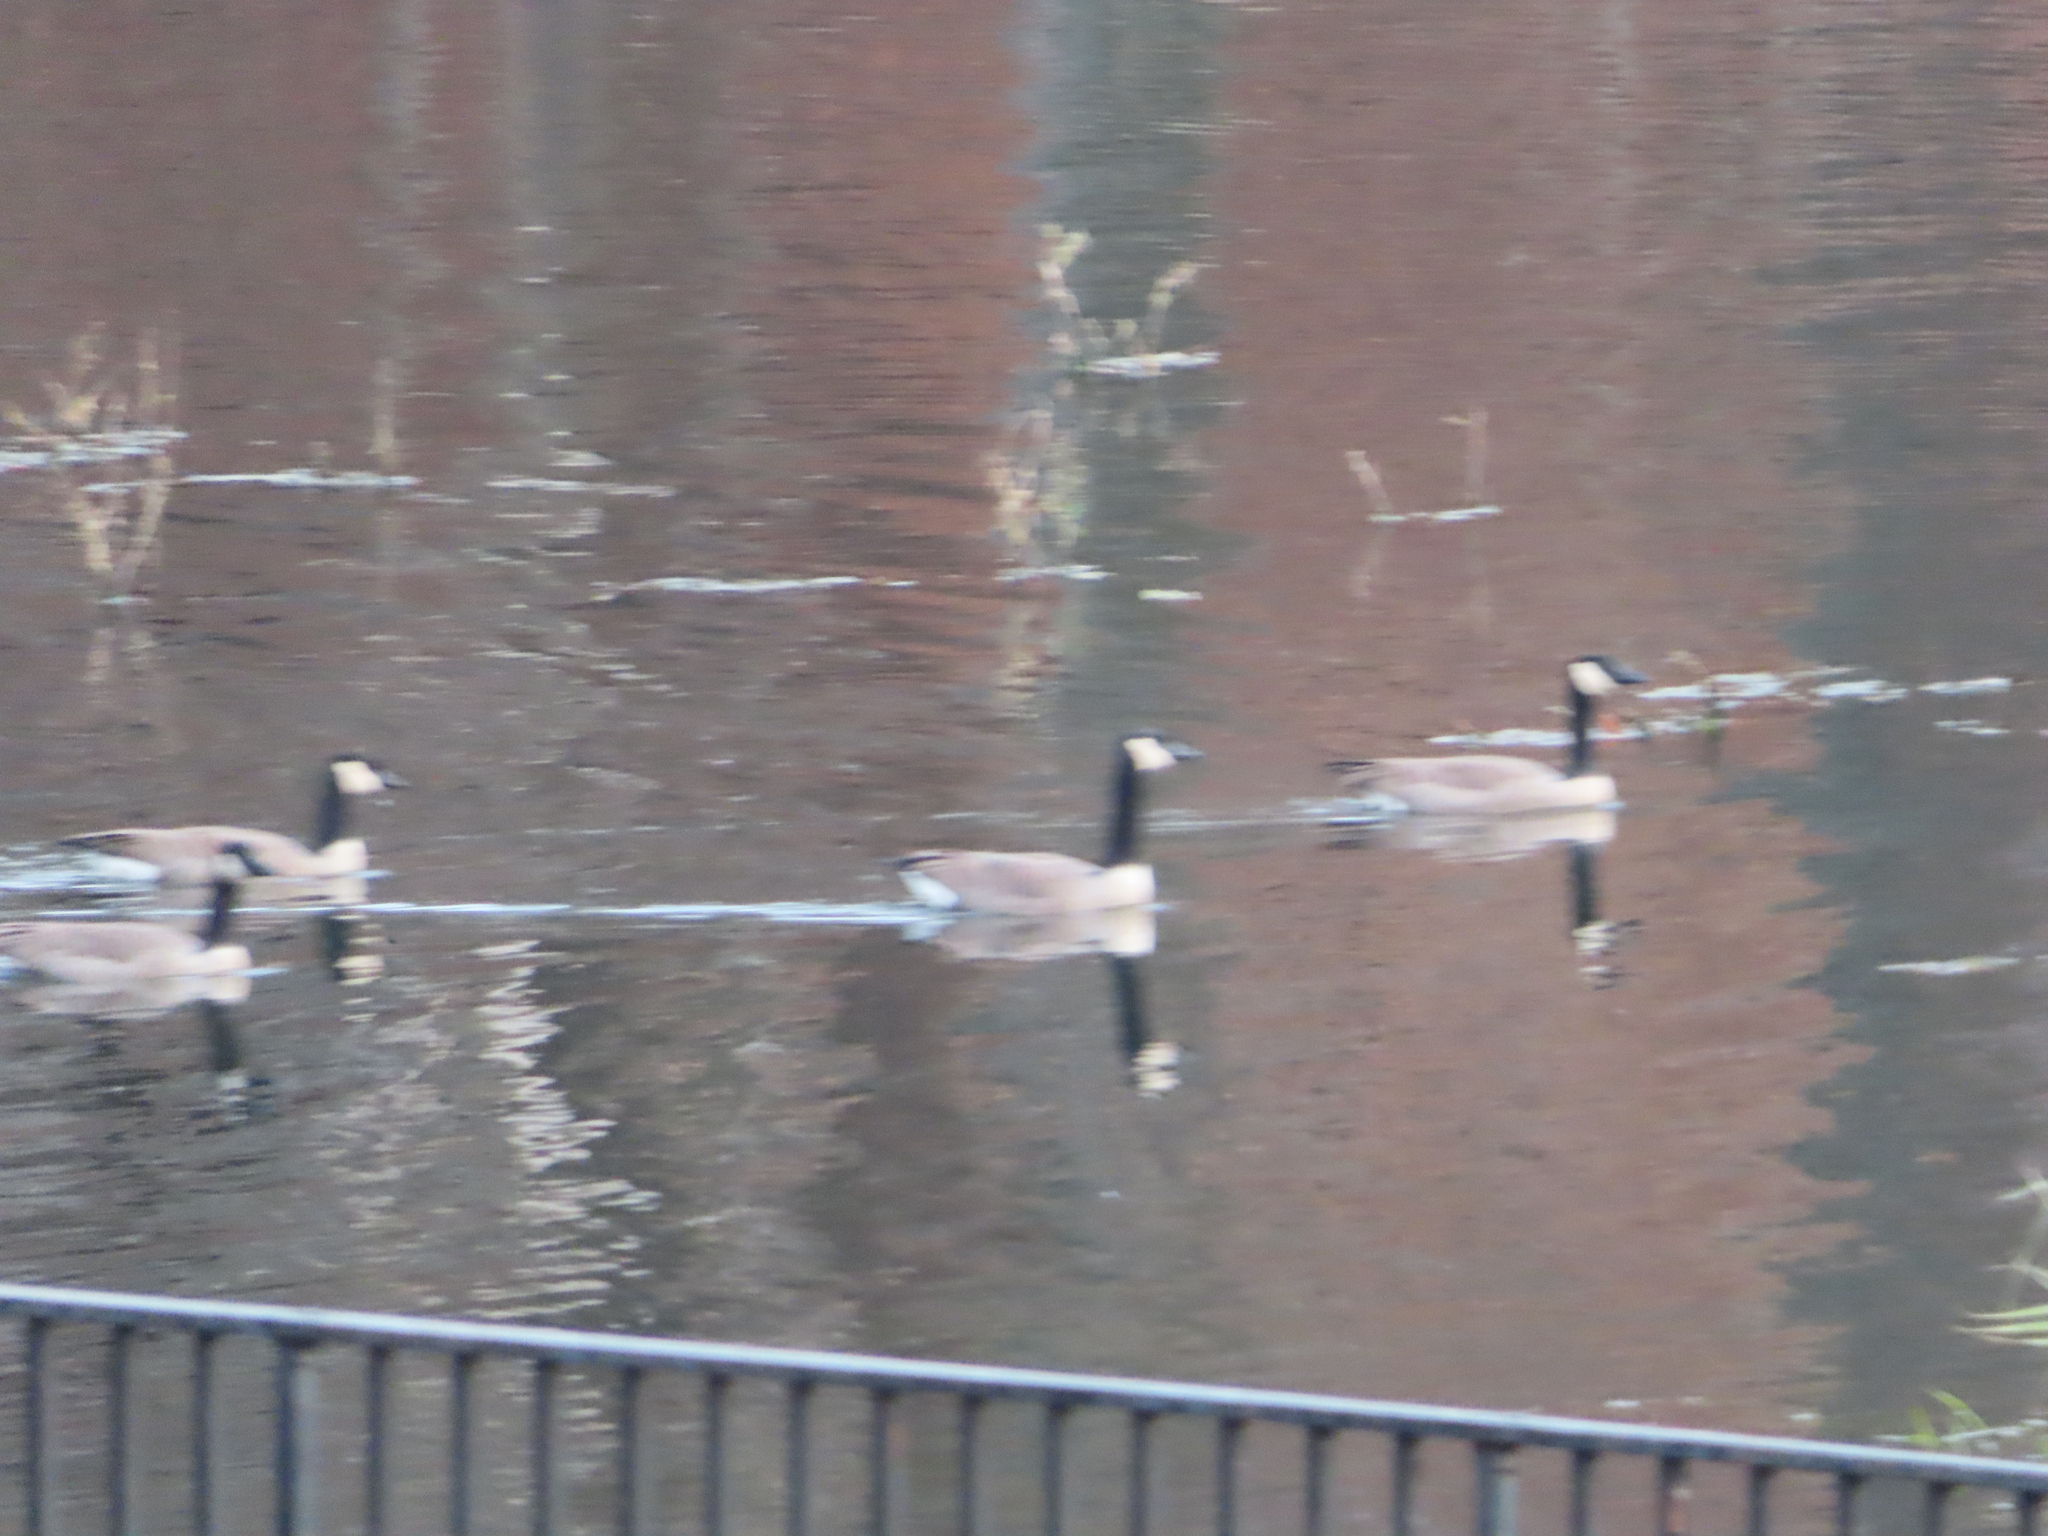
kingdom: Animalia
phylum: Chordata
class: Aves
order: Anseriformes
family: Anatidae
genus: Branta
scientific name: Branta canadensis
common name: Canada goose
